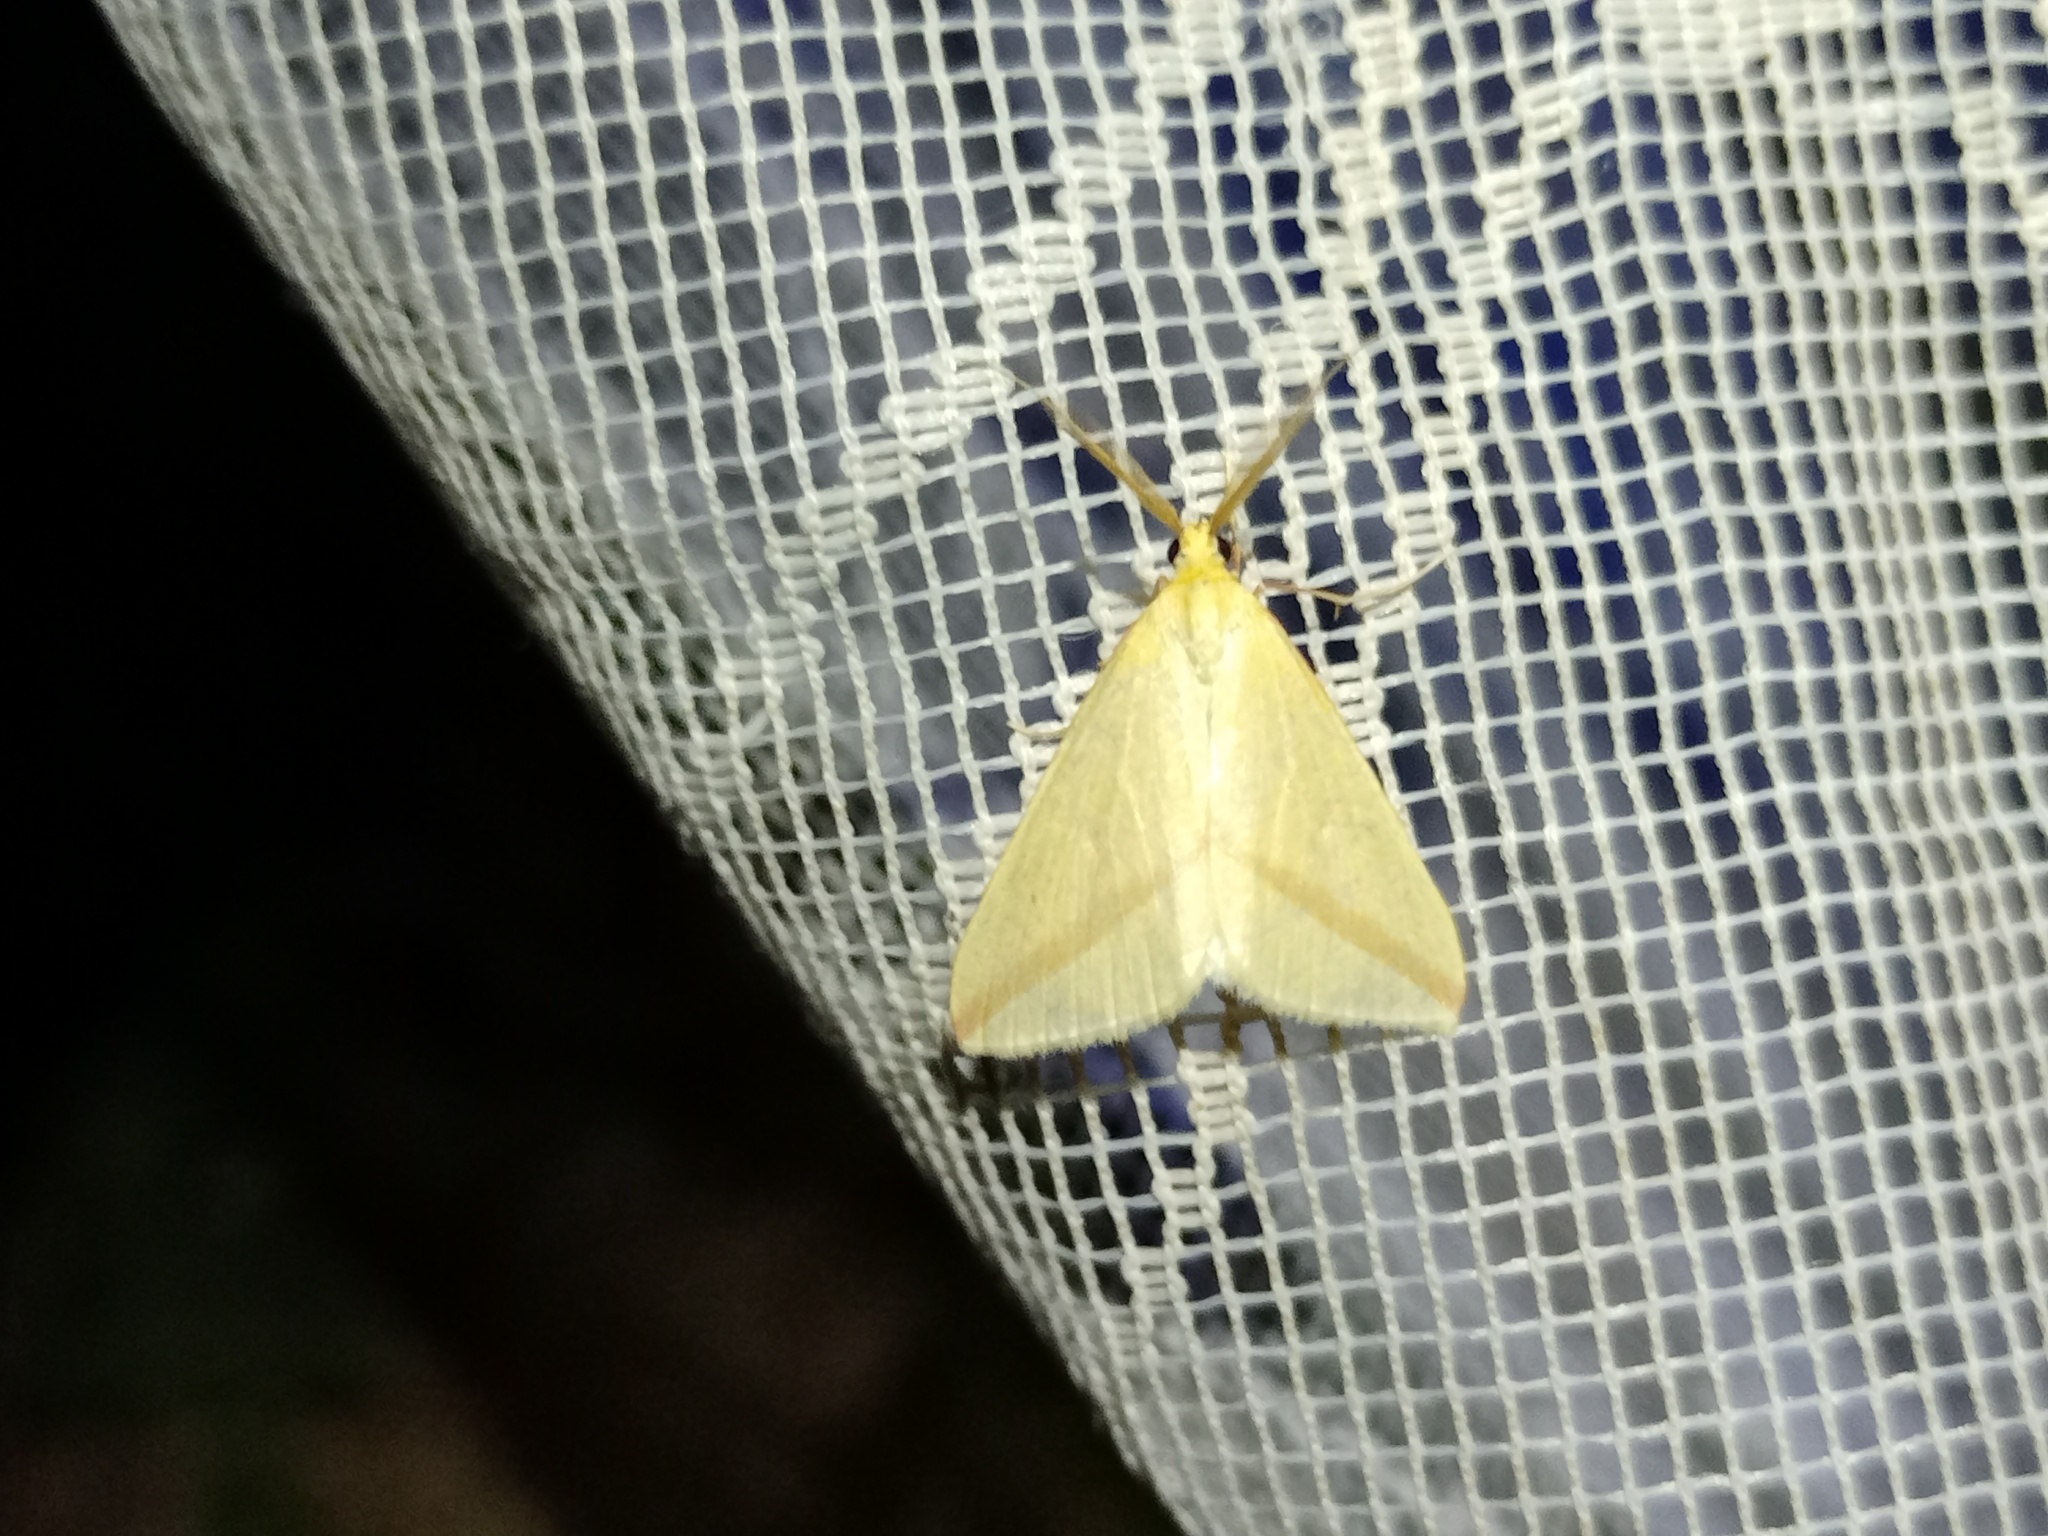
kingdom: Animalia
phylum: Arthropoda
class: Insecta
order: Lepidoptera
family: Geometridae
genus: Rhodometra
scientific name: Rhodometra sacraria
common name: Vestal
